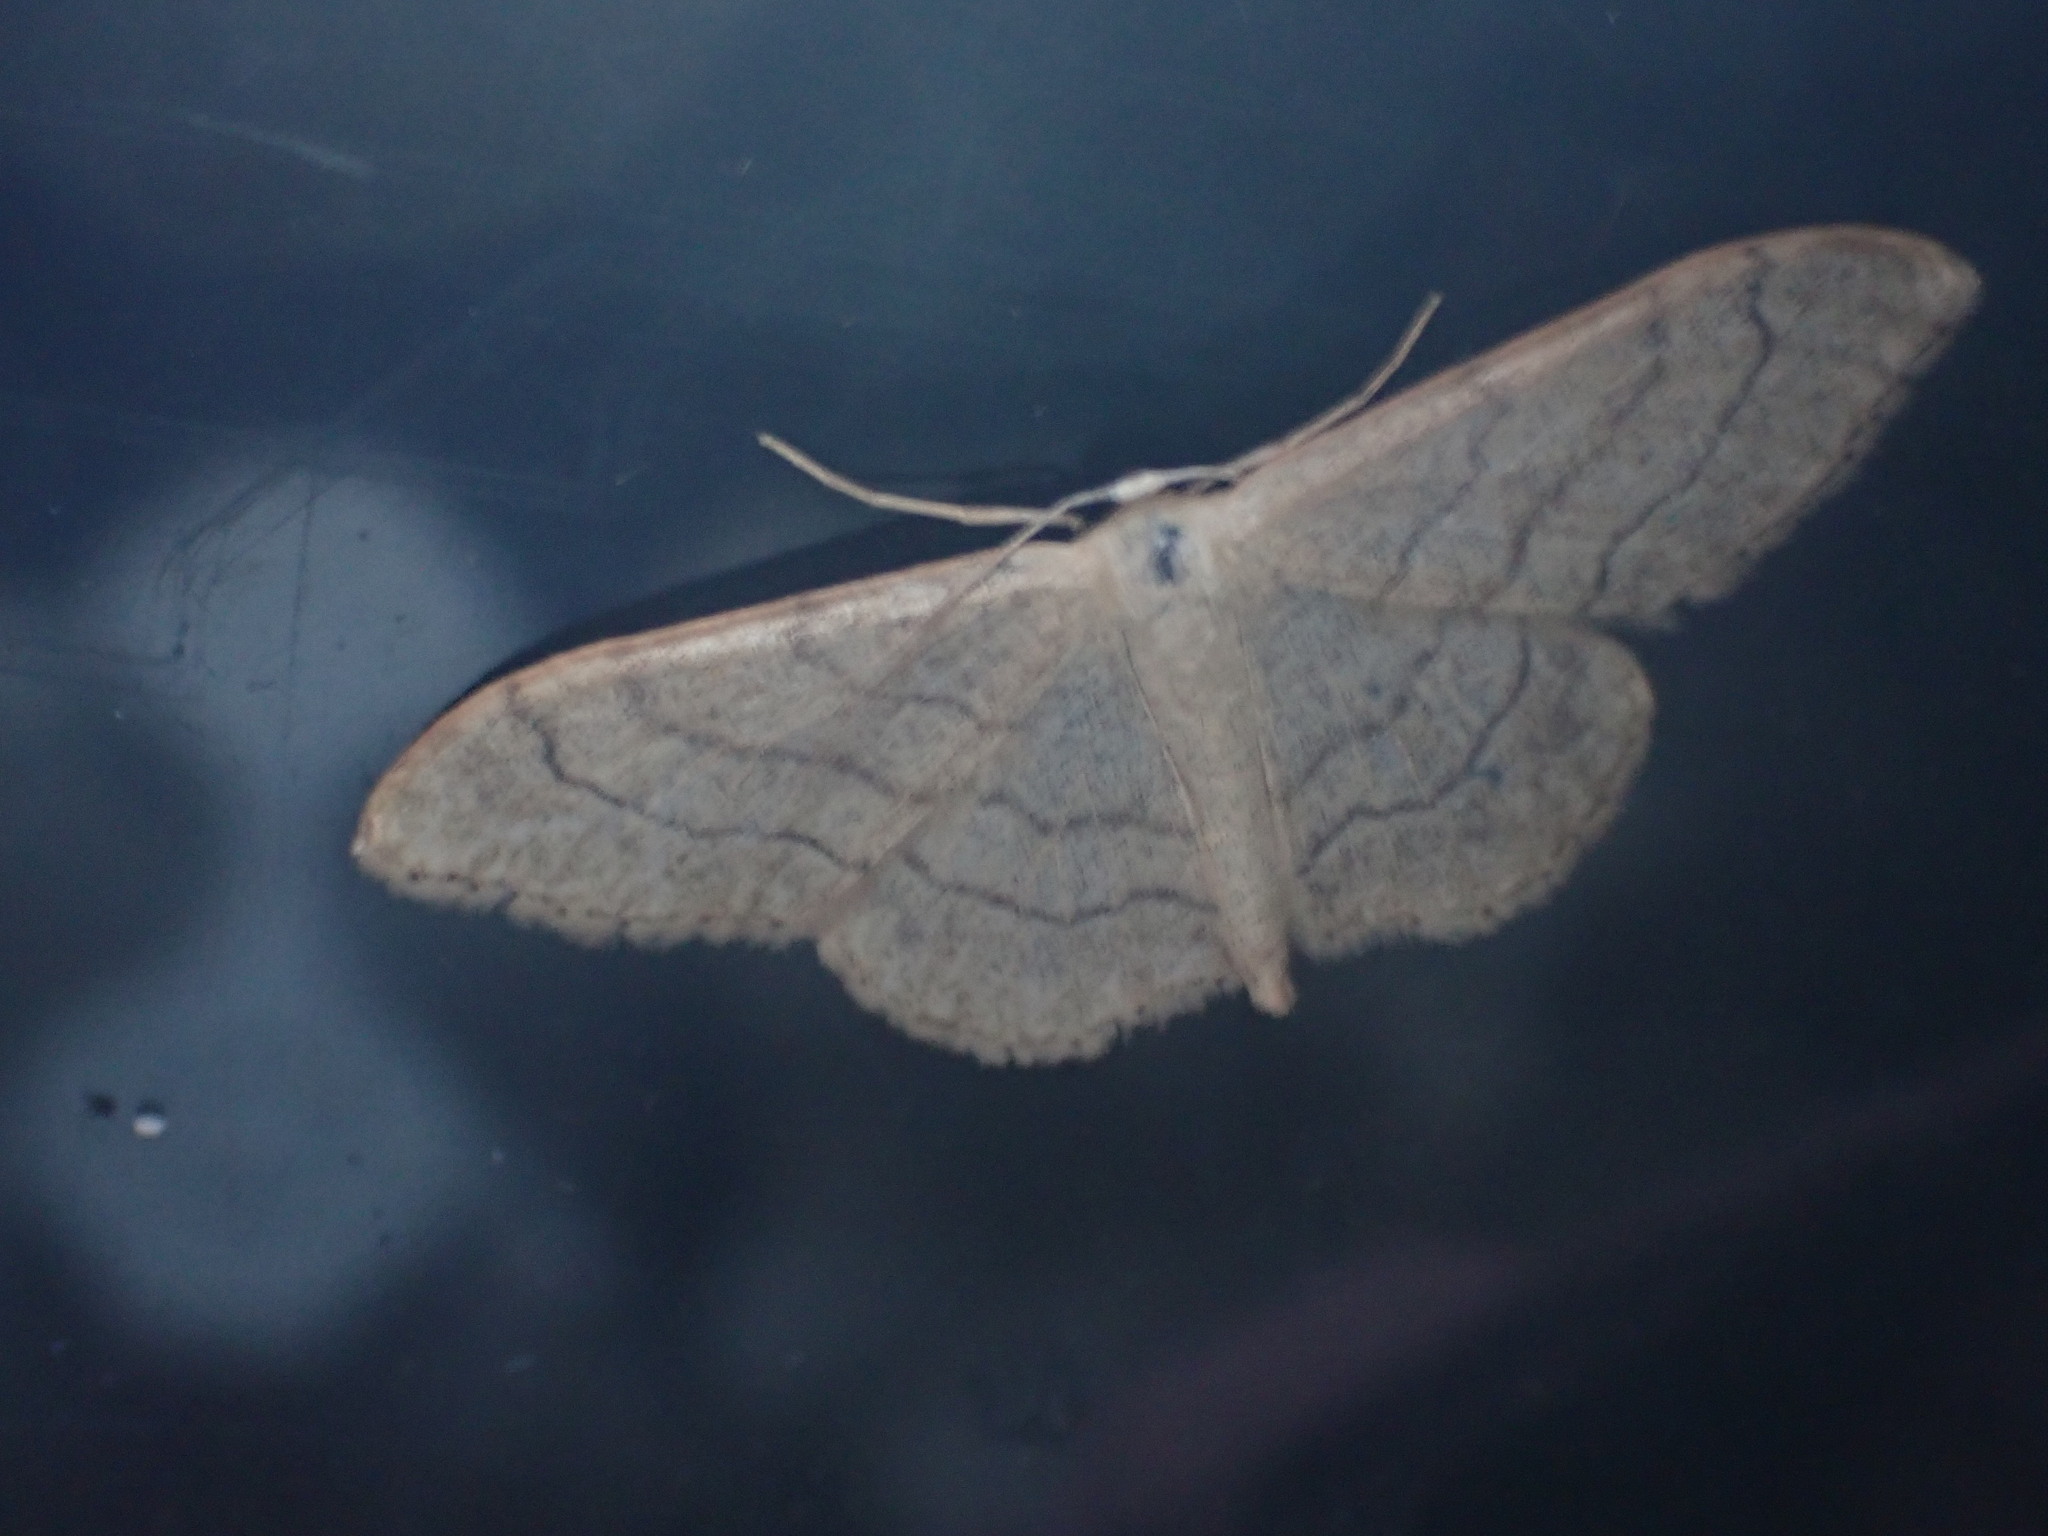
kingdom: Animalia
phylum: Arthropoda
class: Insecta
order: Lepidoptera
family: Geometridae
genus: Idaea
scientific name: Idaea aversata
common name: Riband wave
